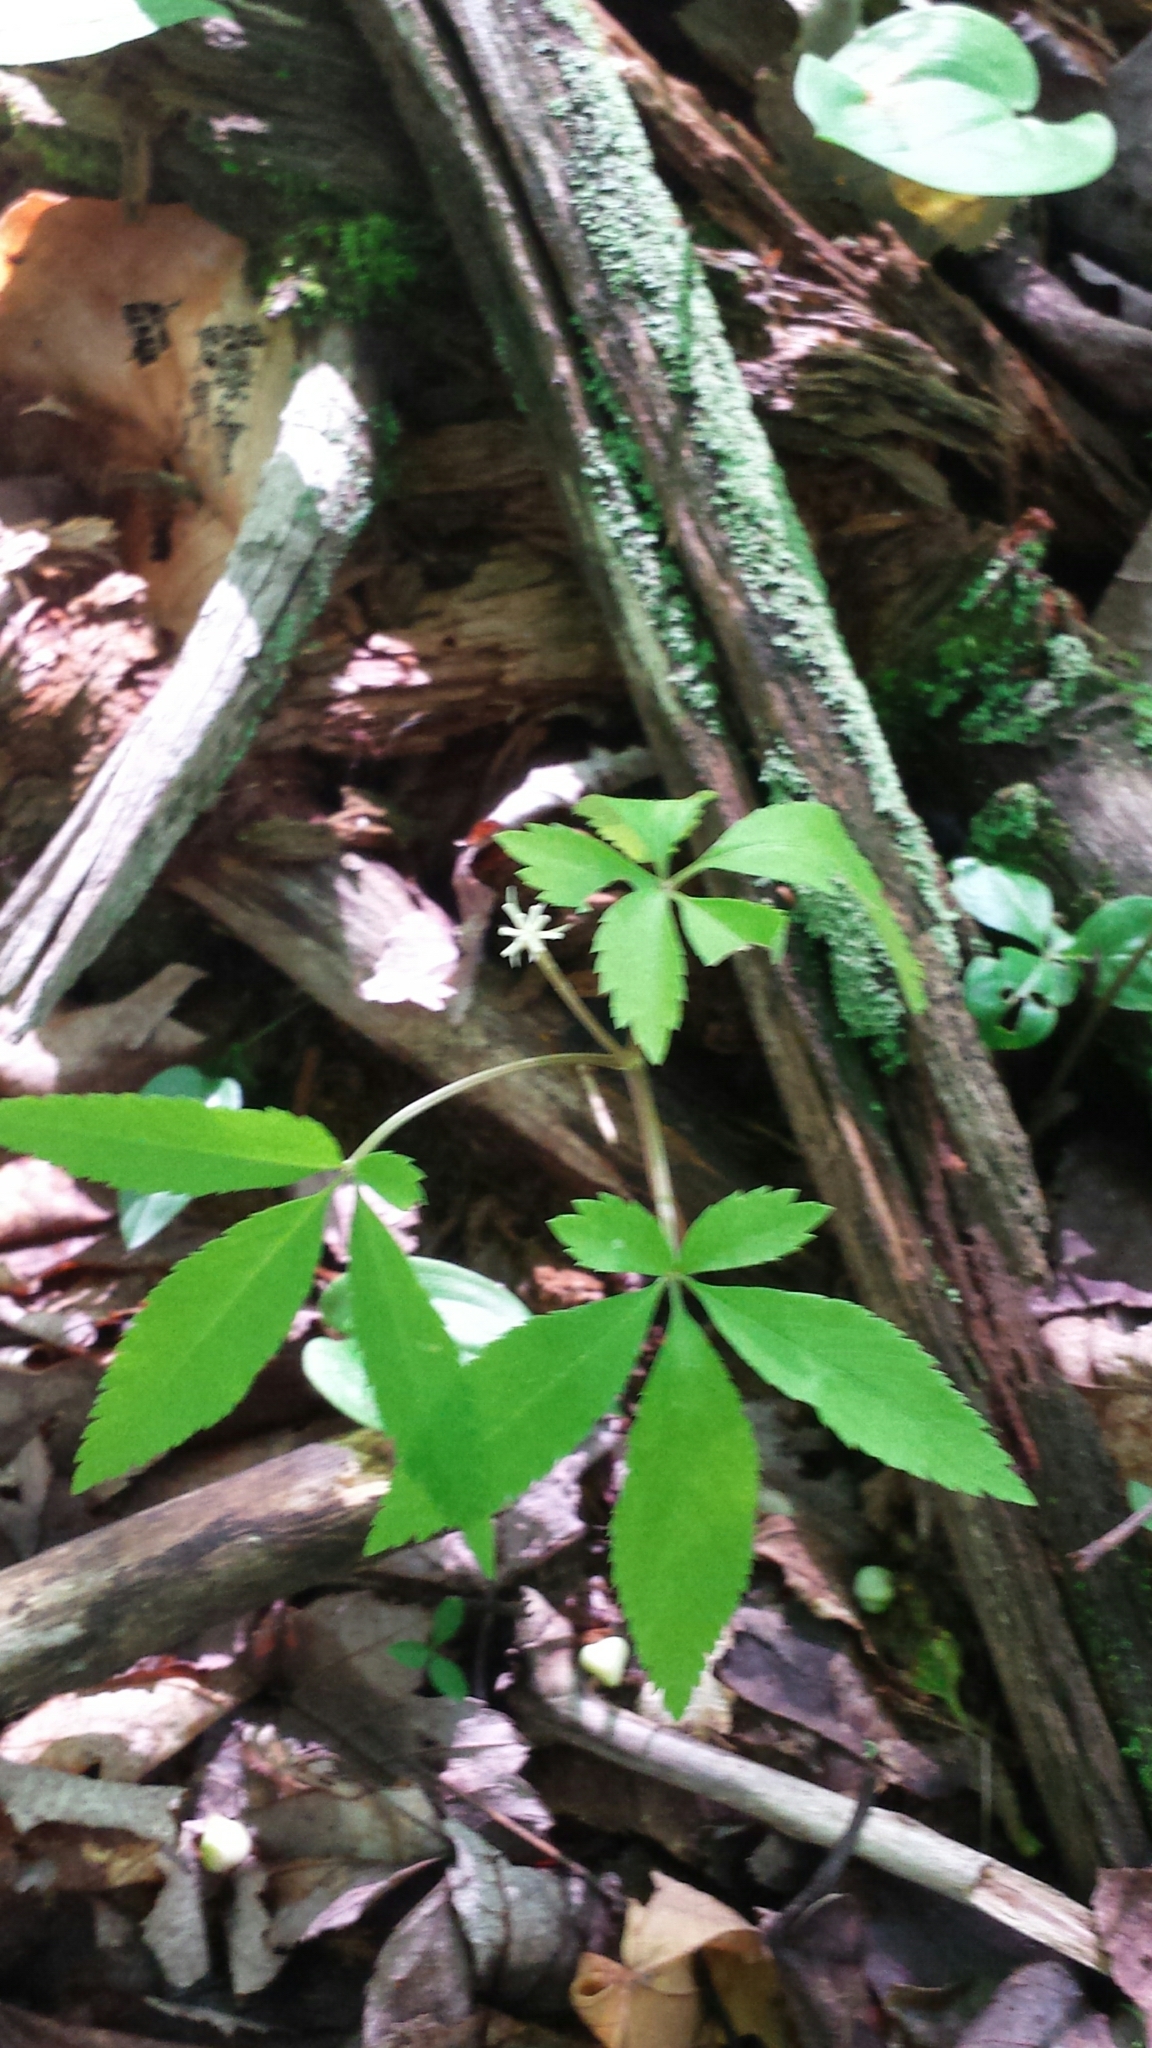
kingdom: Plantae
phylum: Tracheophyta
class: Magnoliopsida
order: Apiales
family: Araliaceae
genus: Panax
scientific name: Panax trifolius
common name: Dwarf ginseng
